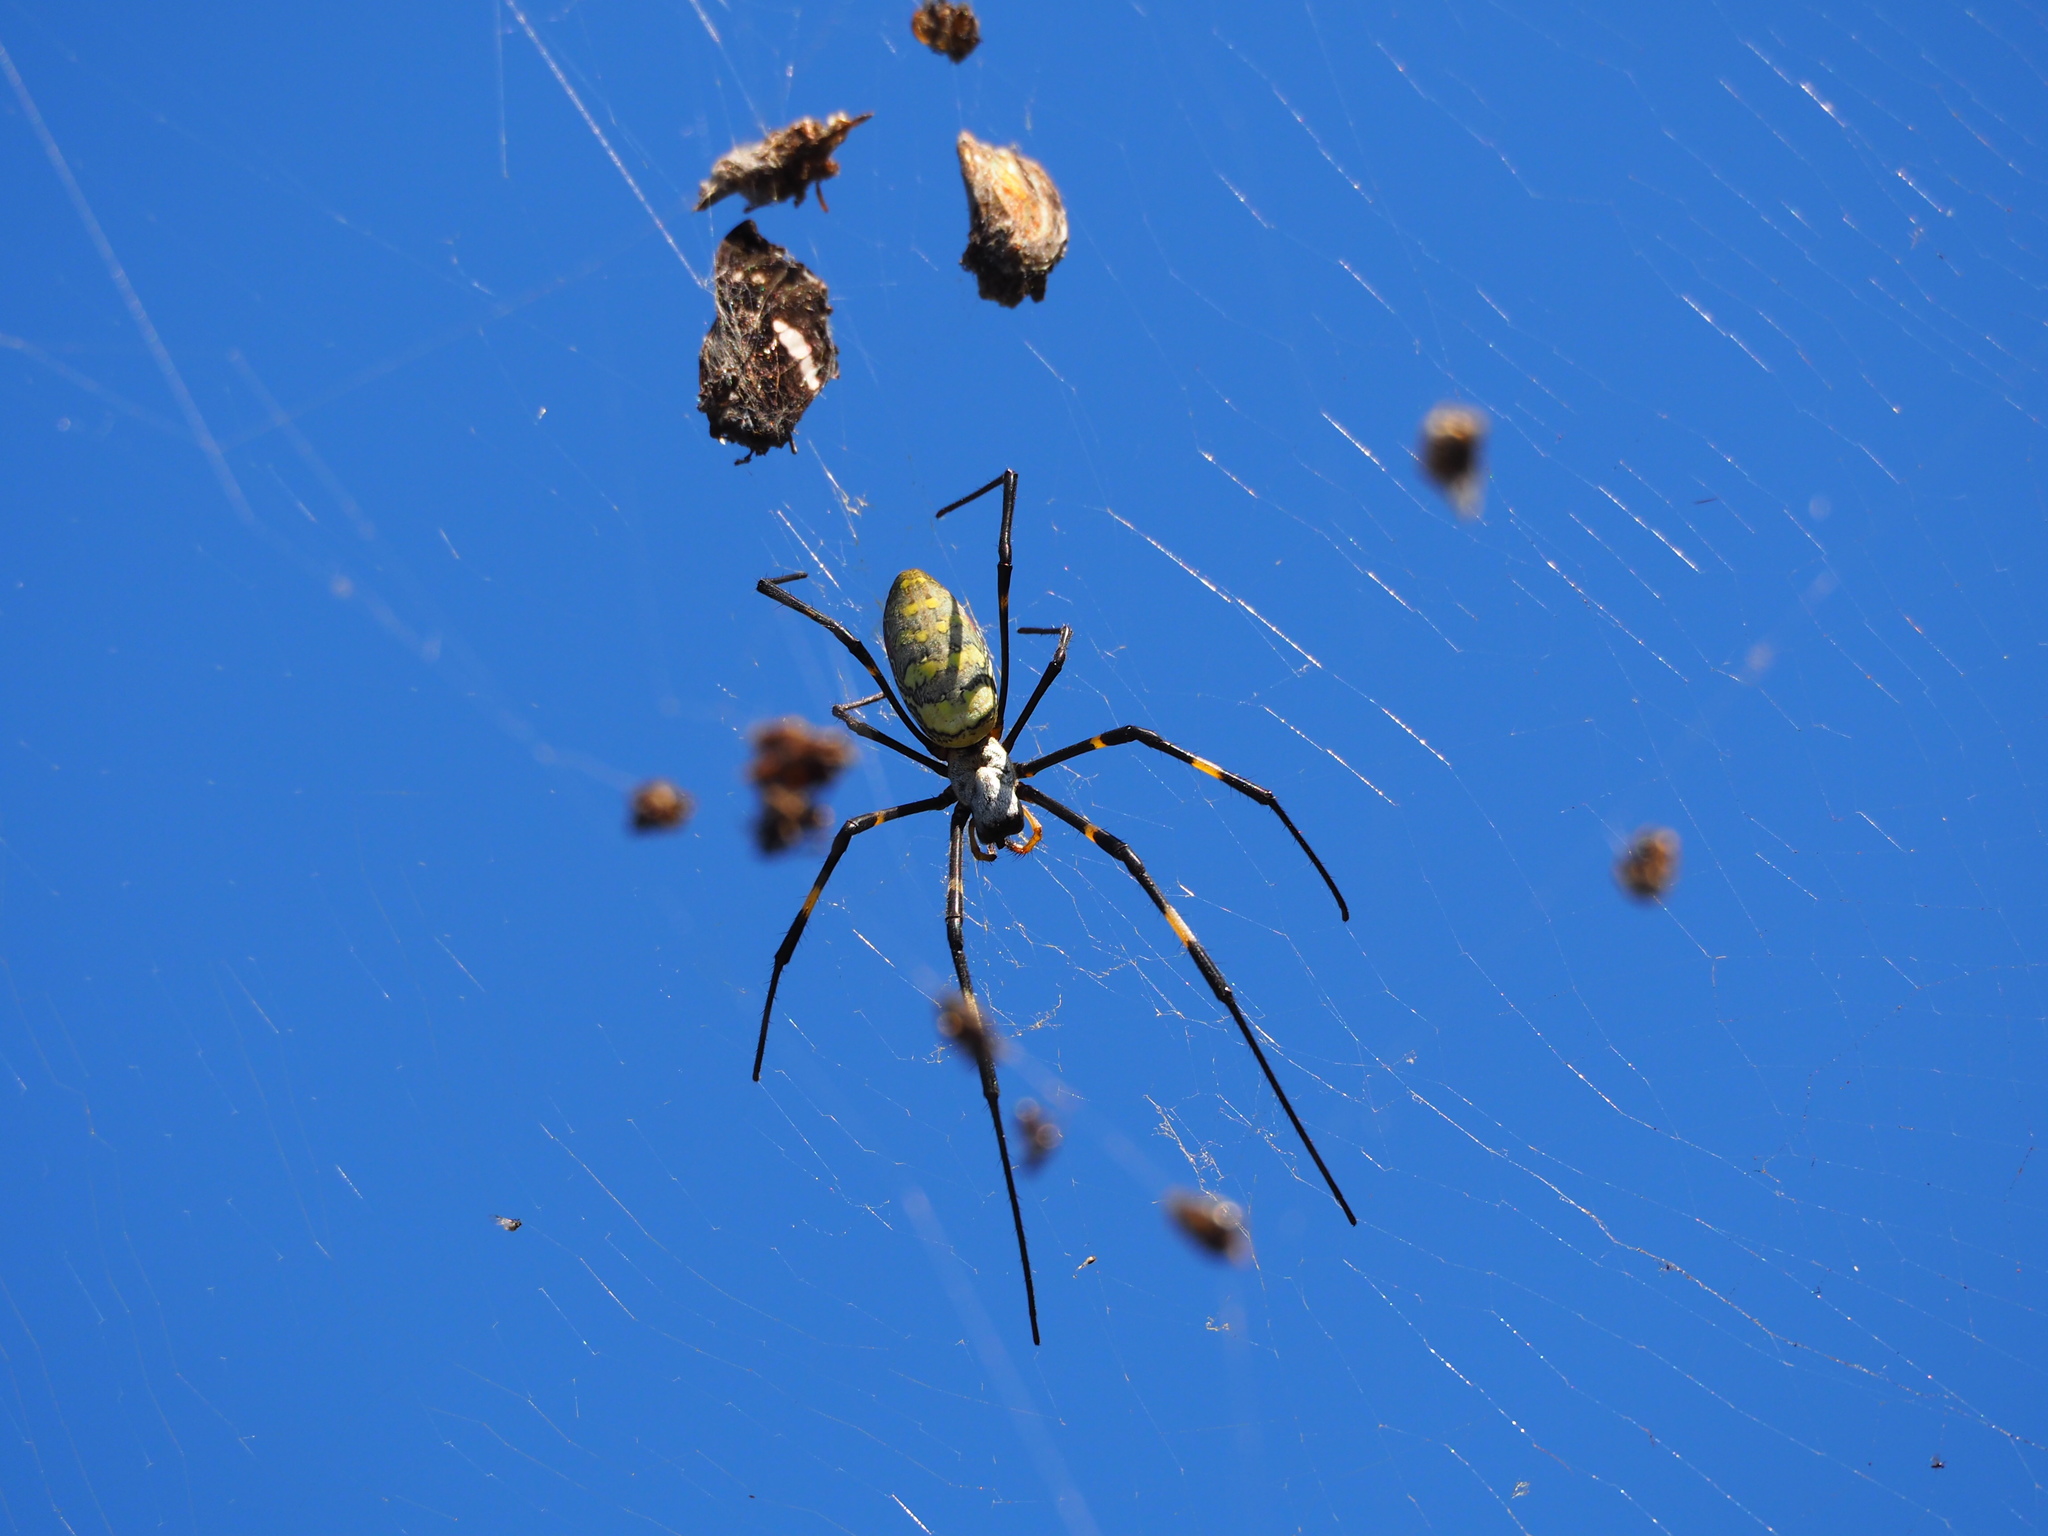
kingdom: Animalia
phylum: Arthropoda
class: Arachnida
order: Araneae
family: Araneidae
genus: Trichonephila
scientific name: Trichonephila clavata
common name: Jorō spider
